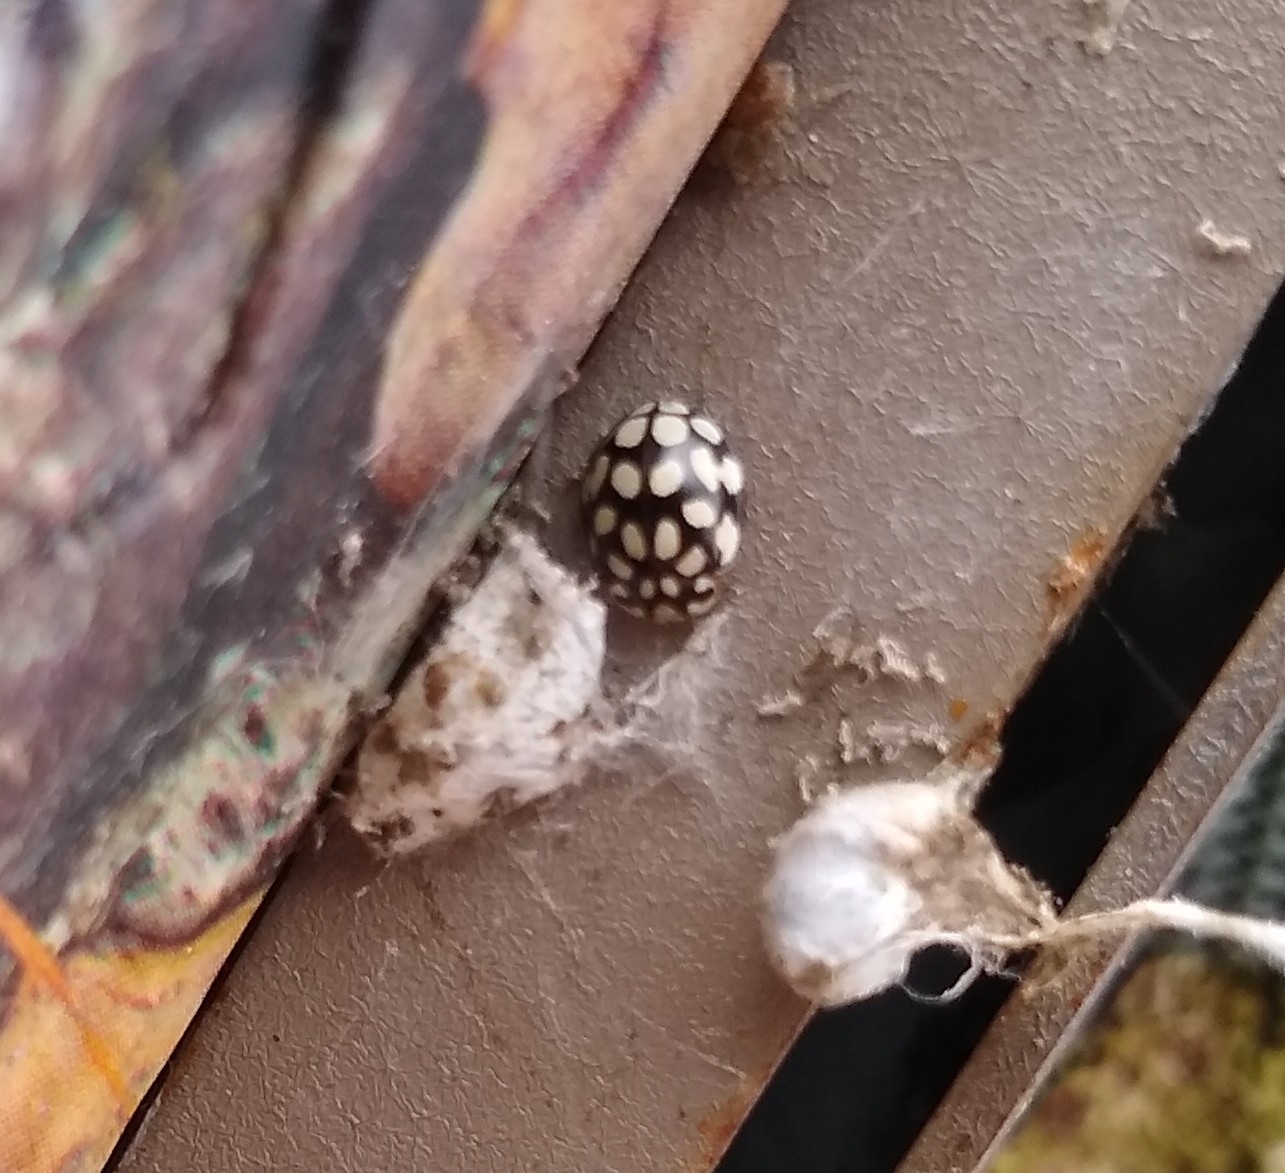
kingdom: Animalia
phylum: Arthropoda
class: Insecta
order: Coleoptera
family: Coccinellidae
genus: Sospita
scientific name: Sospita vigintiguttata
